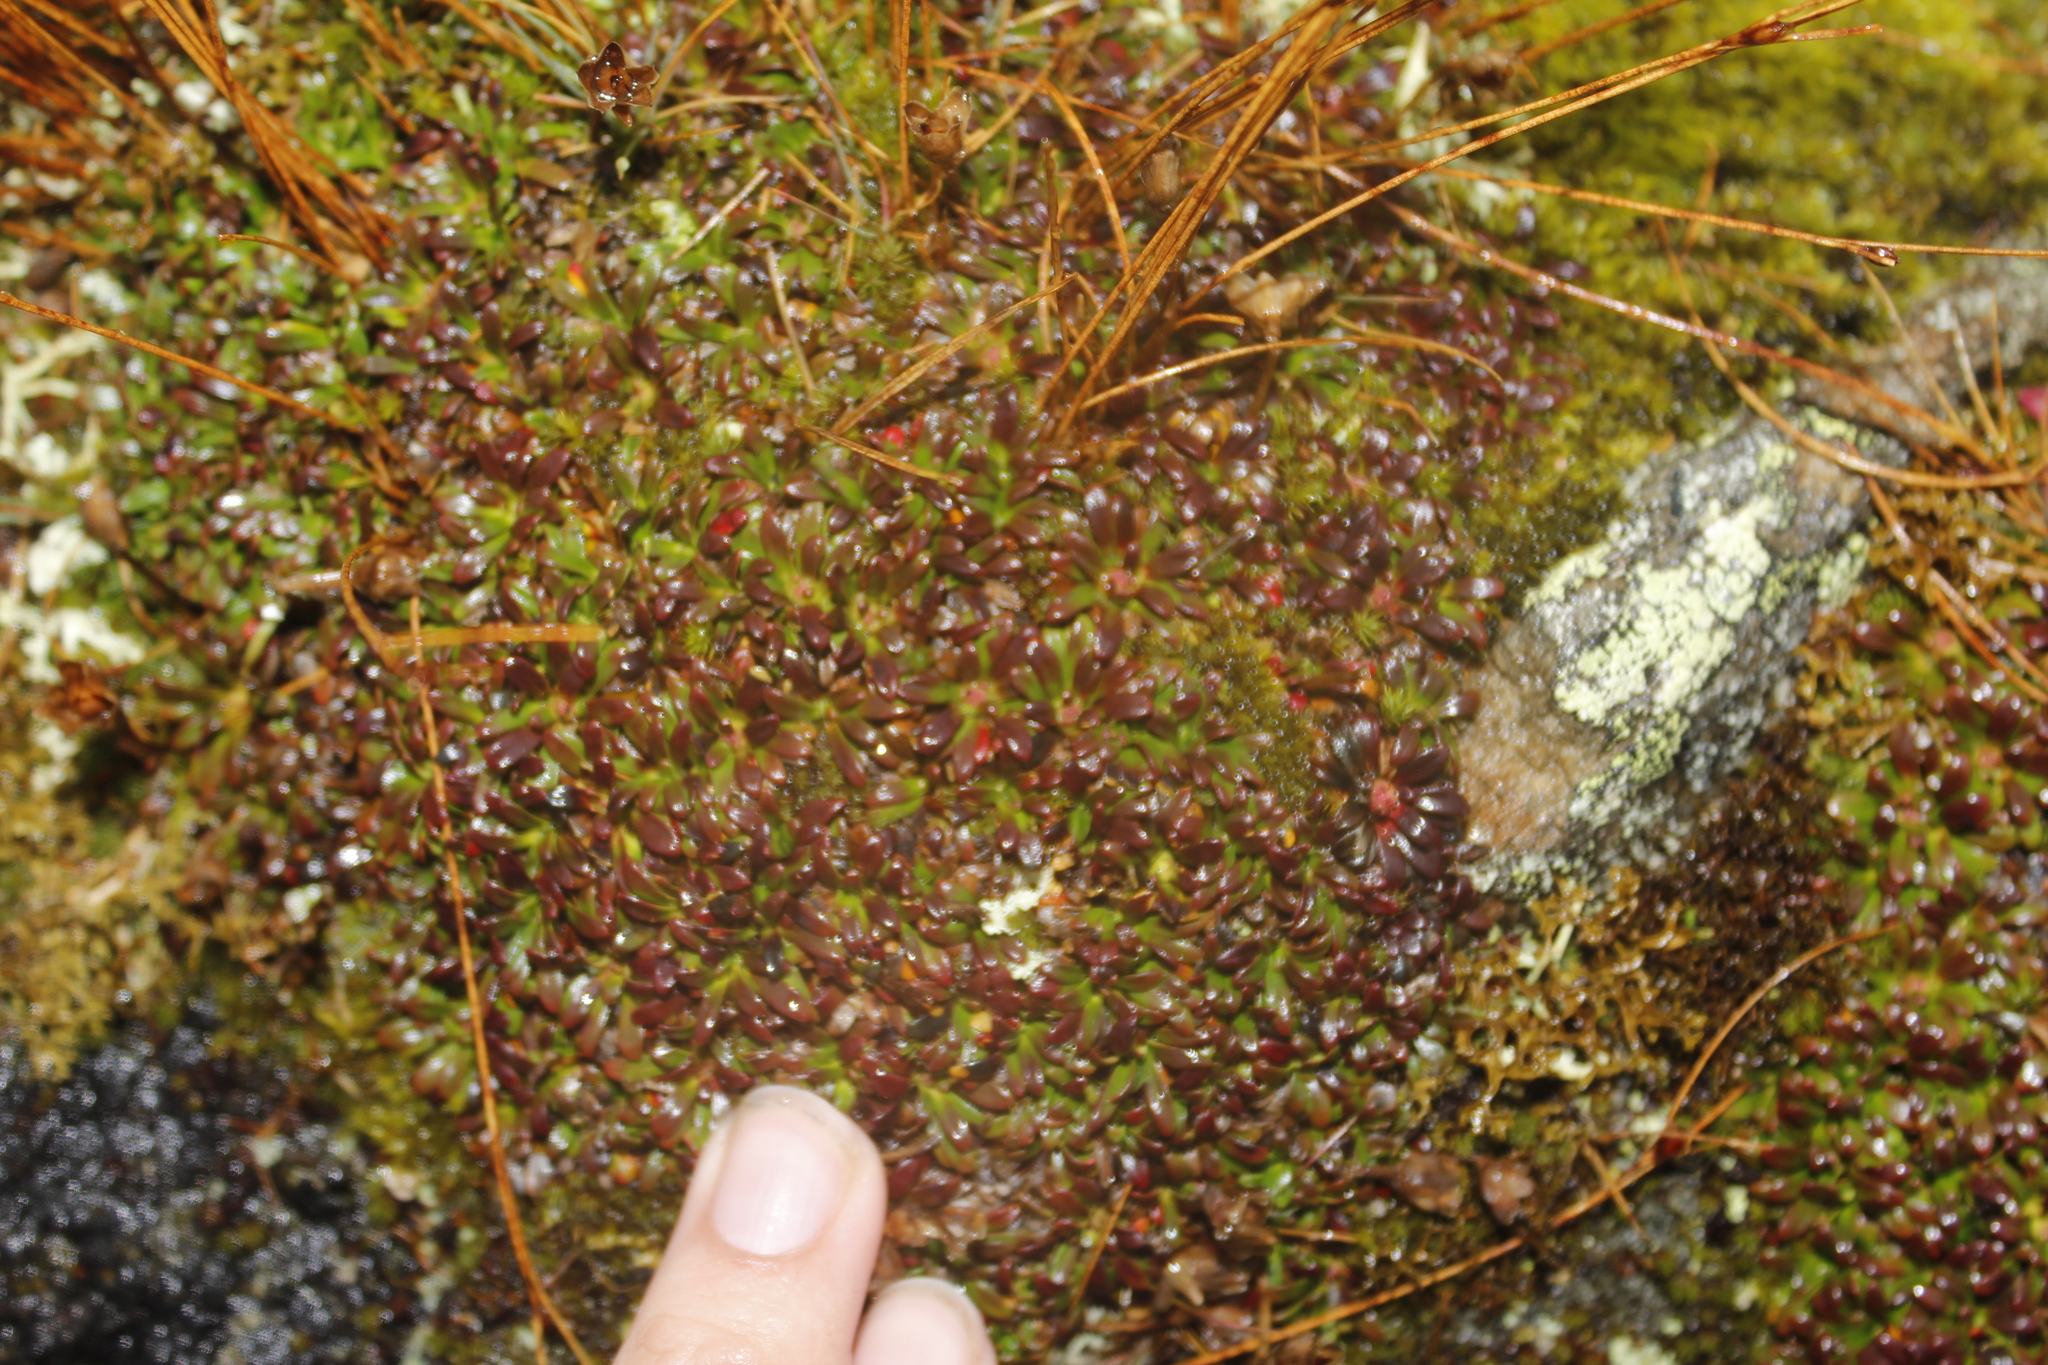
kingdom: Plantae
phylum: Tracheophyta
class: Magnoliopsida
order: Ericales
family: Diapensiaceae
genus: Diapensia
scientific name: Diapensia lapponica
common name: Diapensia
